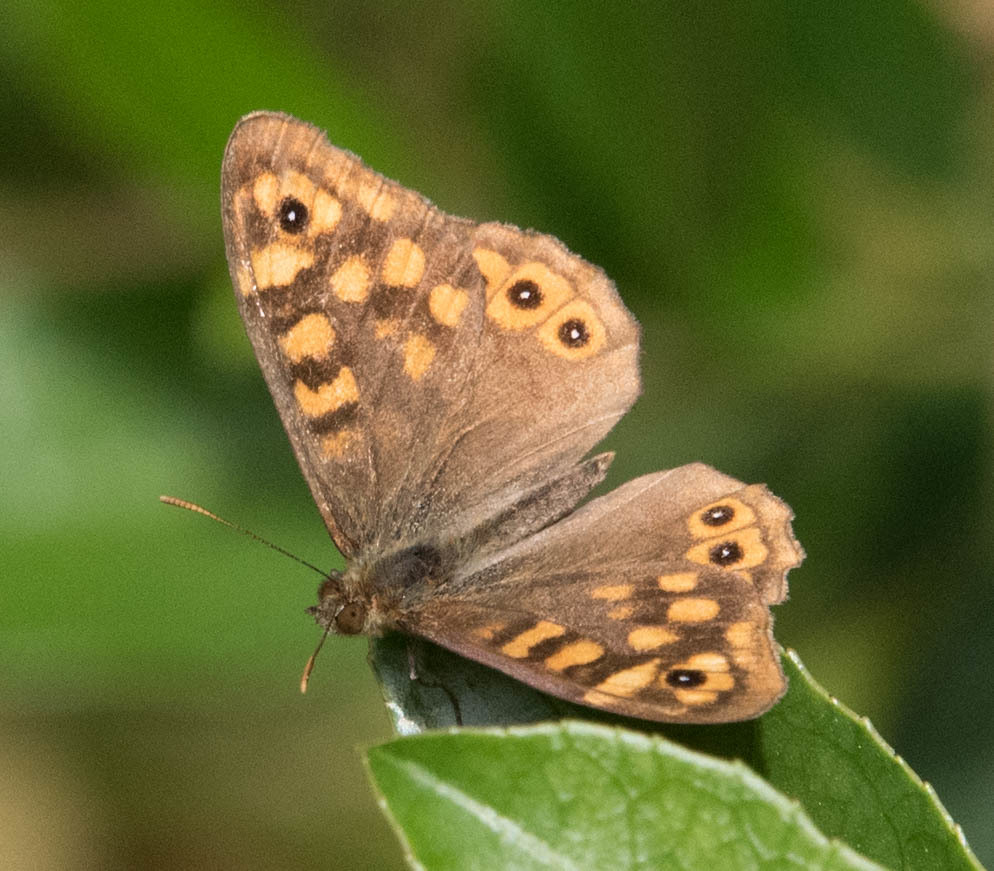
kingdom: Animalia
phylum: Arthropoda
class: Insecta
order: Lepidoptera
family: Nymphalidae
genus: Pararge
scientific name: Pararge aegeria
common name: Speckled wood
